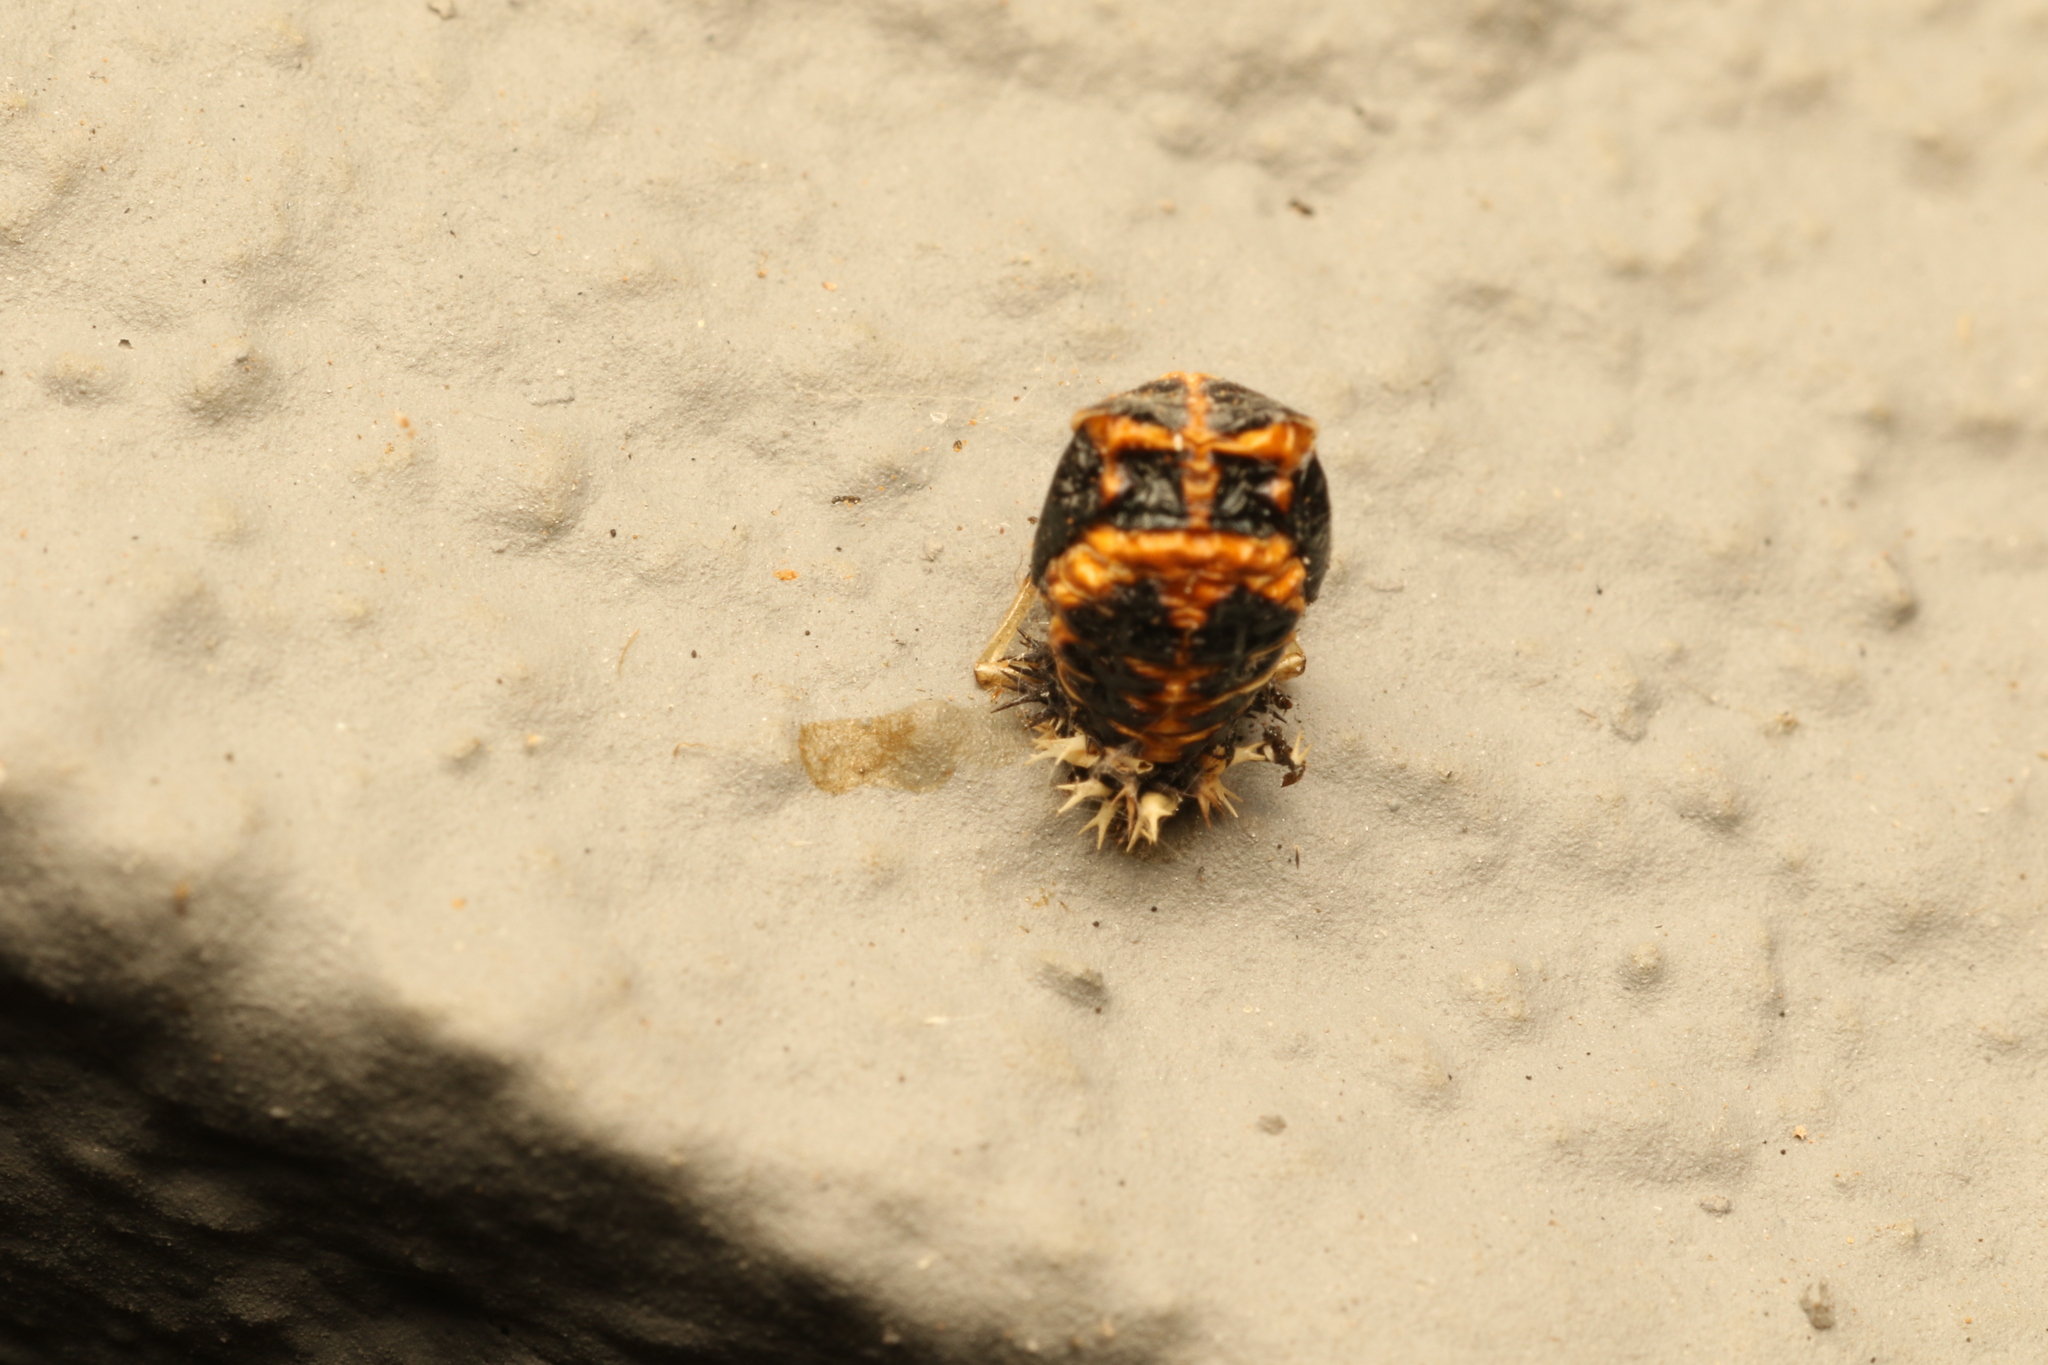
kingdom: Animalia
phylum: Arthropoda
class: Insecta
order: Coleoptera
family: Coccinellidae
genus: Harmonia
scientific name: Harmonia axyridis
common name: Harlequin ladybird
